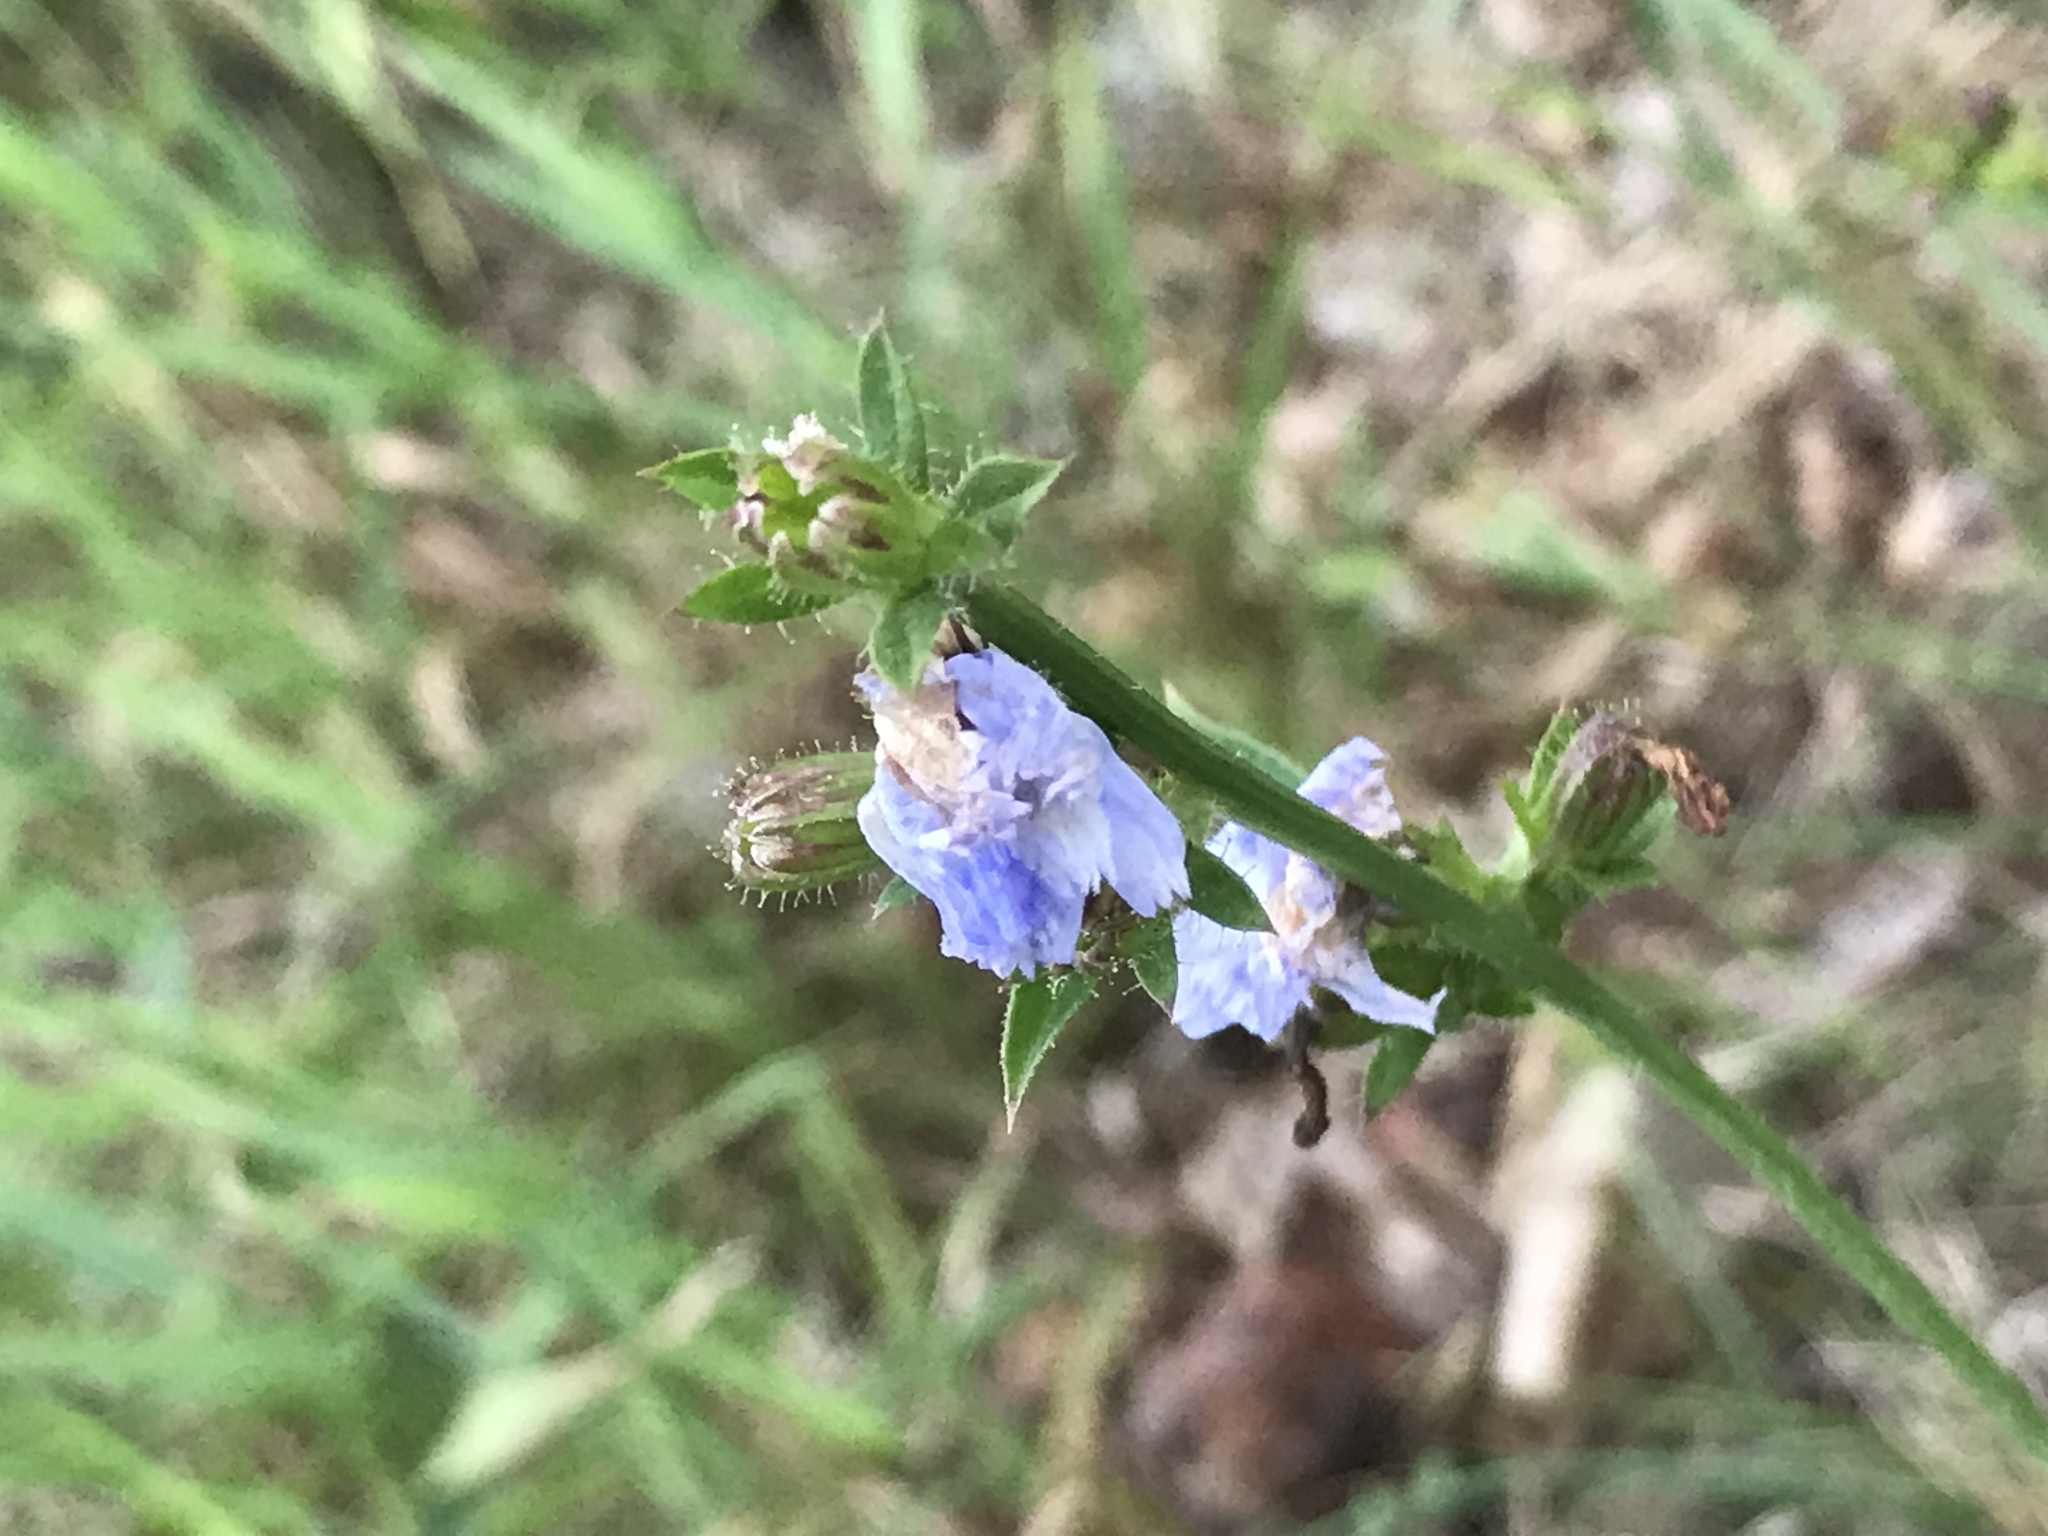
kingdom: Plantae
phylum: Tracheophyta
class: Magnoliopsida
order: Asterales
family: Asteraceae
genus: Cichorium
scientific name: Cichorium intybus
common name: Chicory
